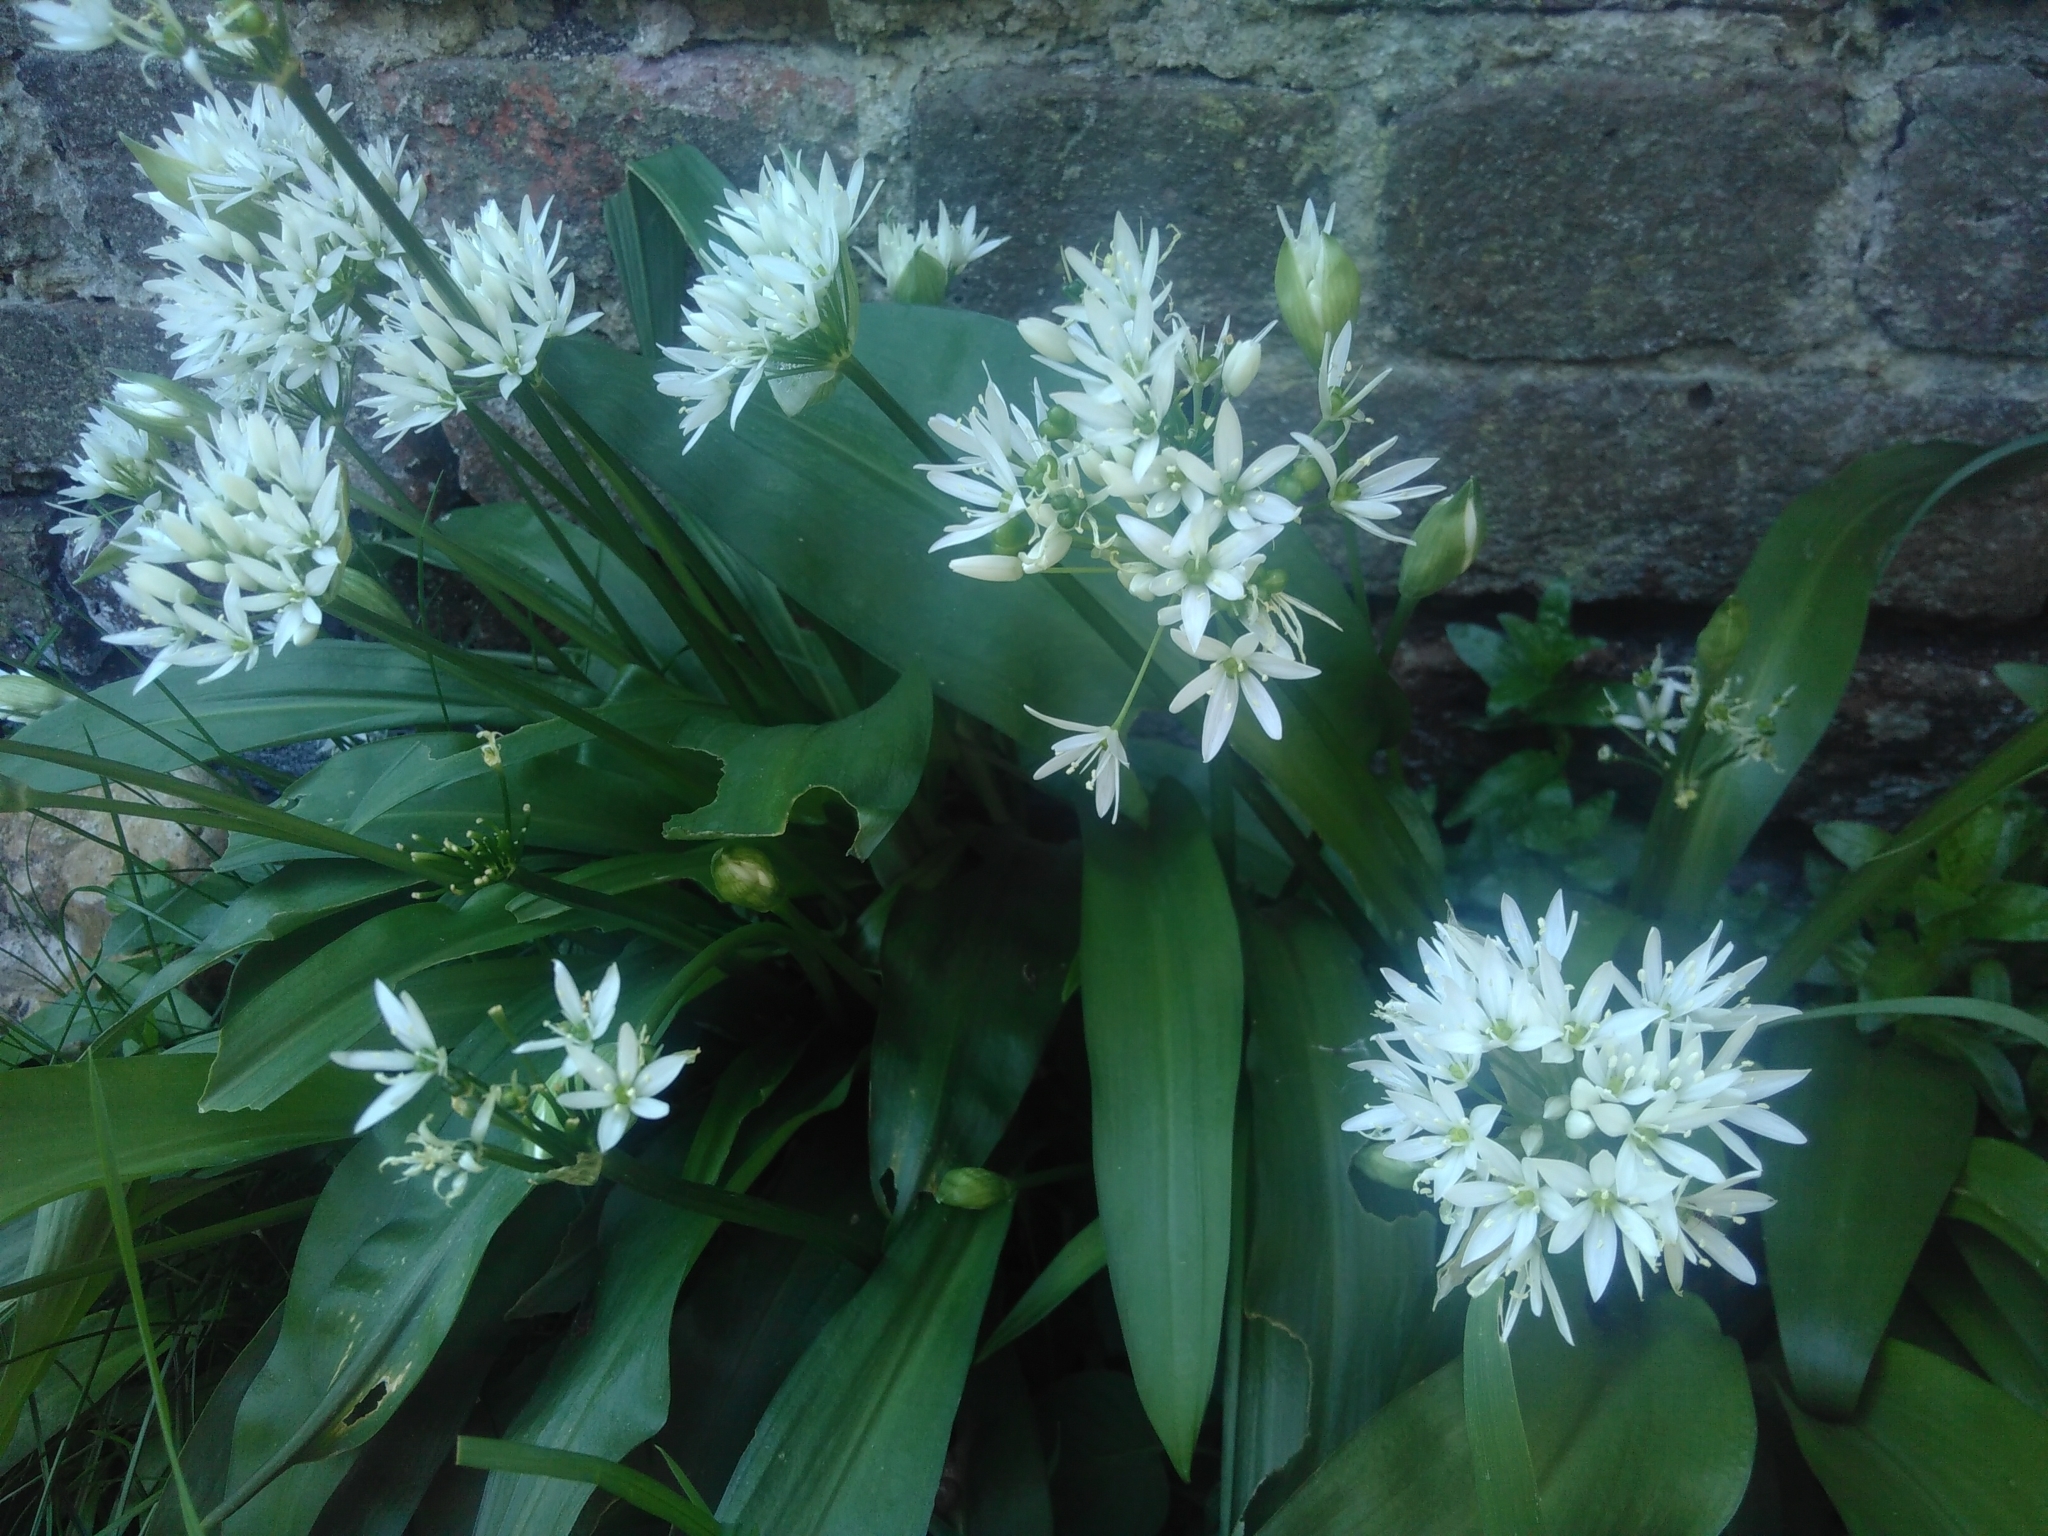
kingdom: Plantae
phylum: Tracheophyta
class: Liliopsida
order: Asparagales
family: Amaryllidaceae
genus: Allium
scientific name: Allium ursinum
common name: Ramsons
